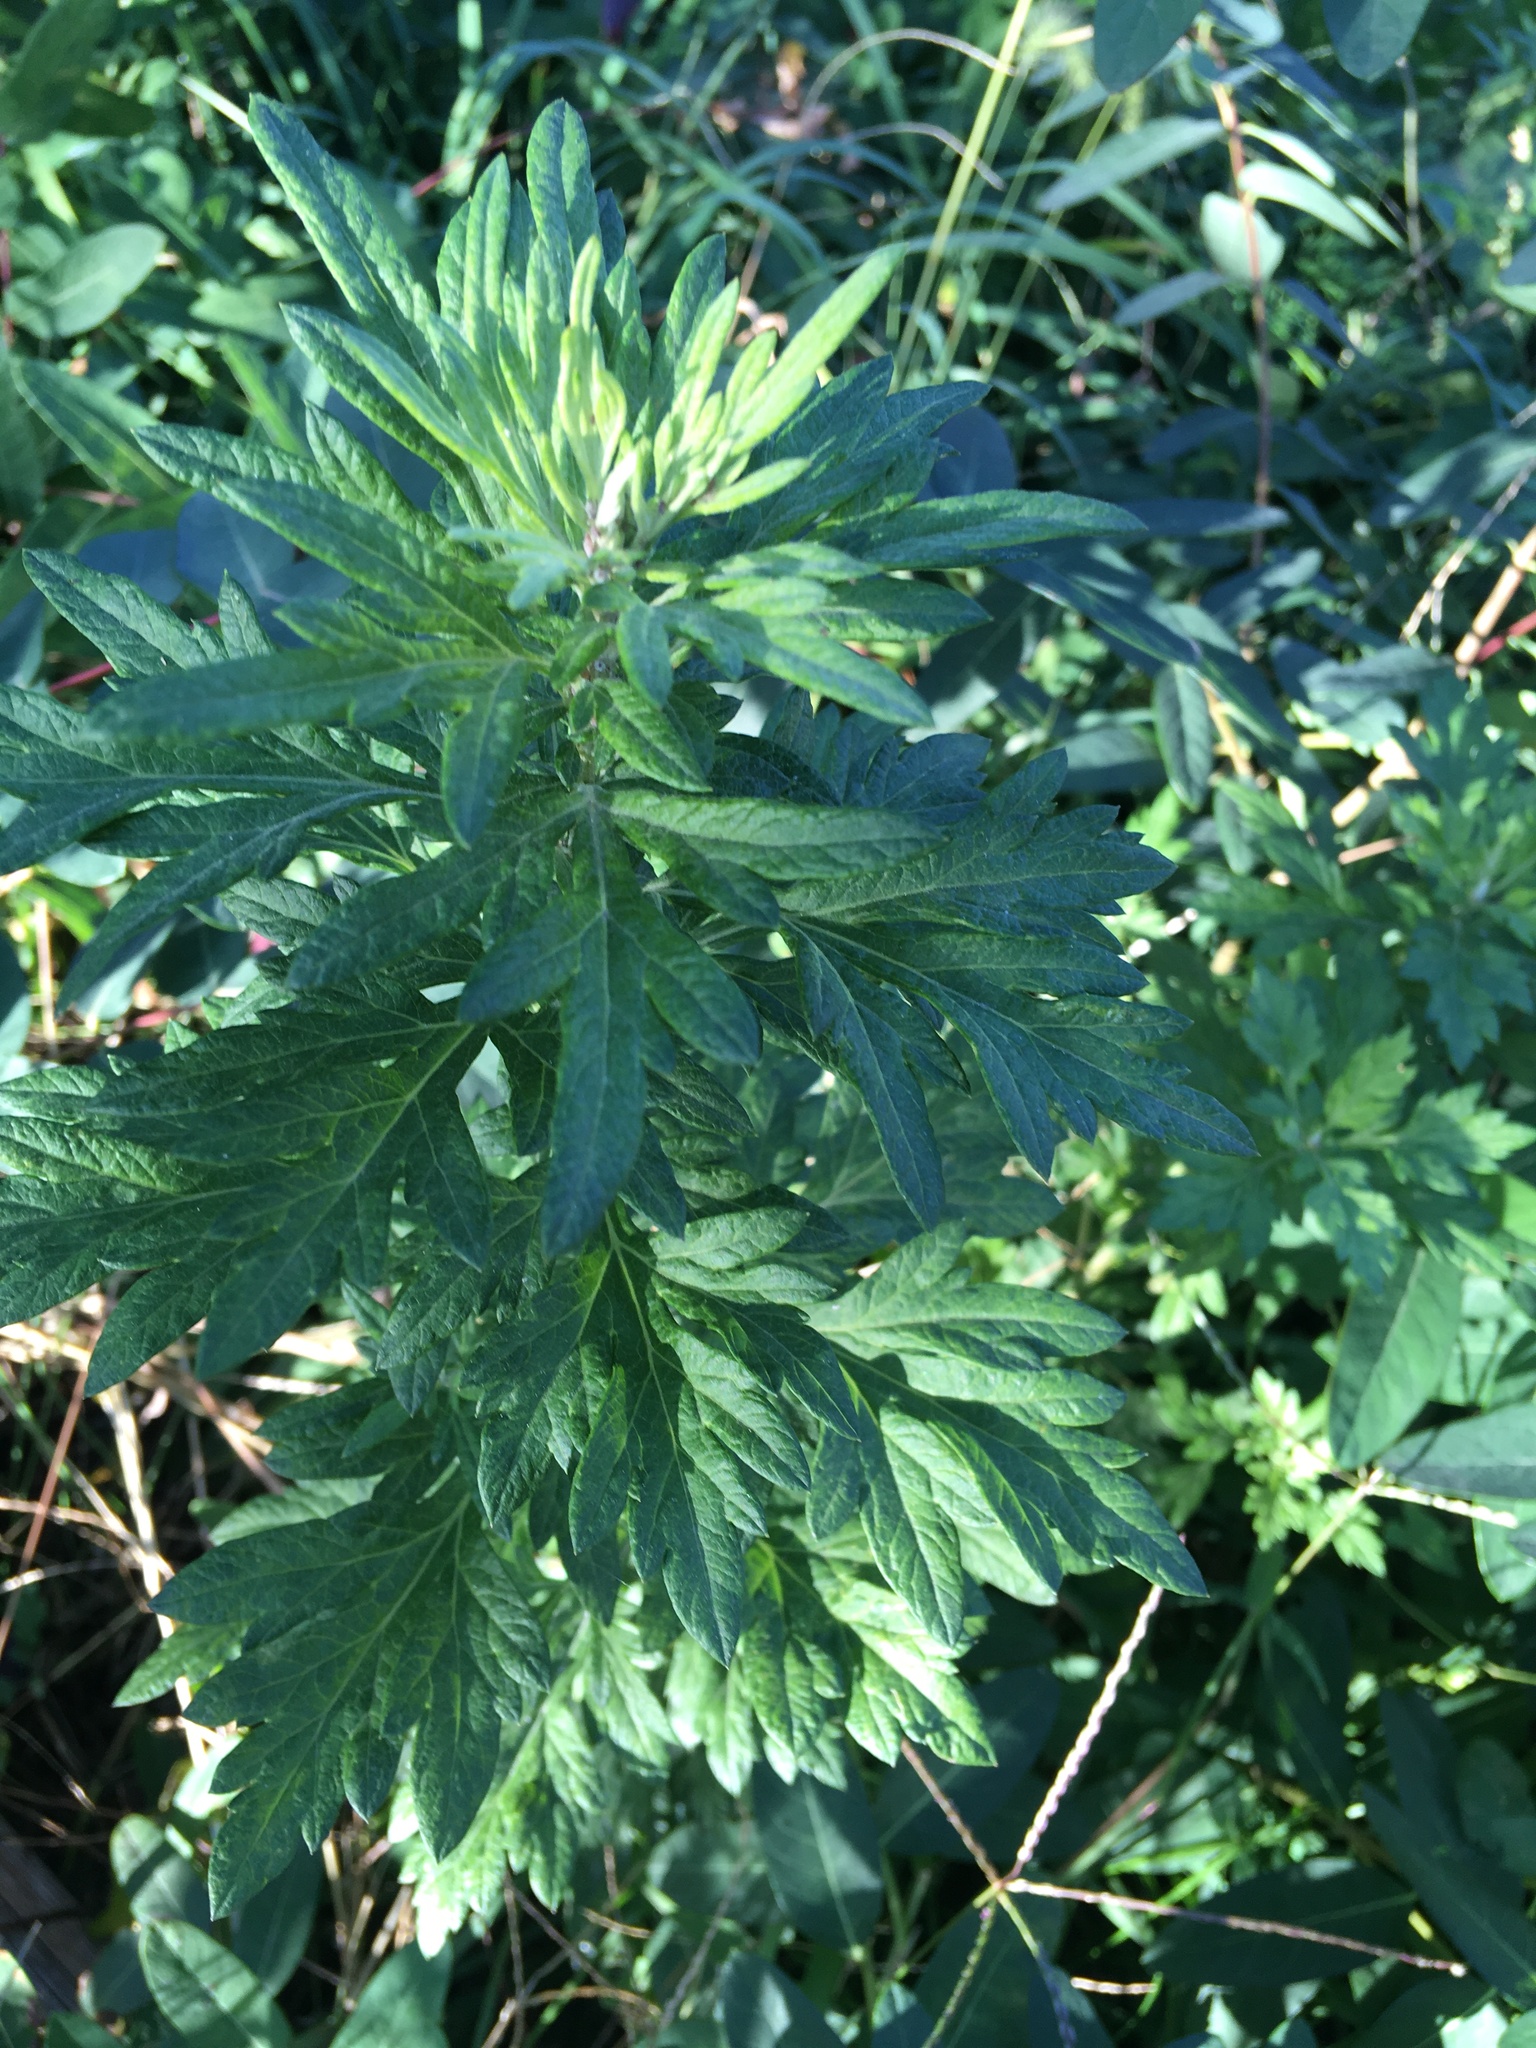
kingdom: Plantae
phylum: Tracheophyta
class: Magnoliopsida
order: Asterales
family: Asteraceae
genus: Artemisia
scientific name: Artemisia vulgaris
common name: Mugwort
